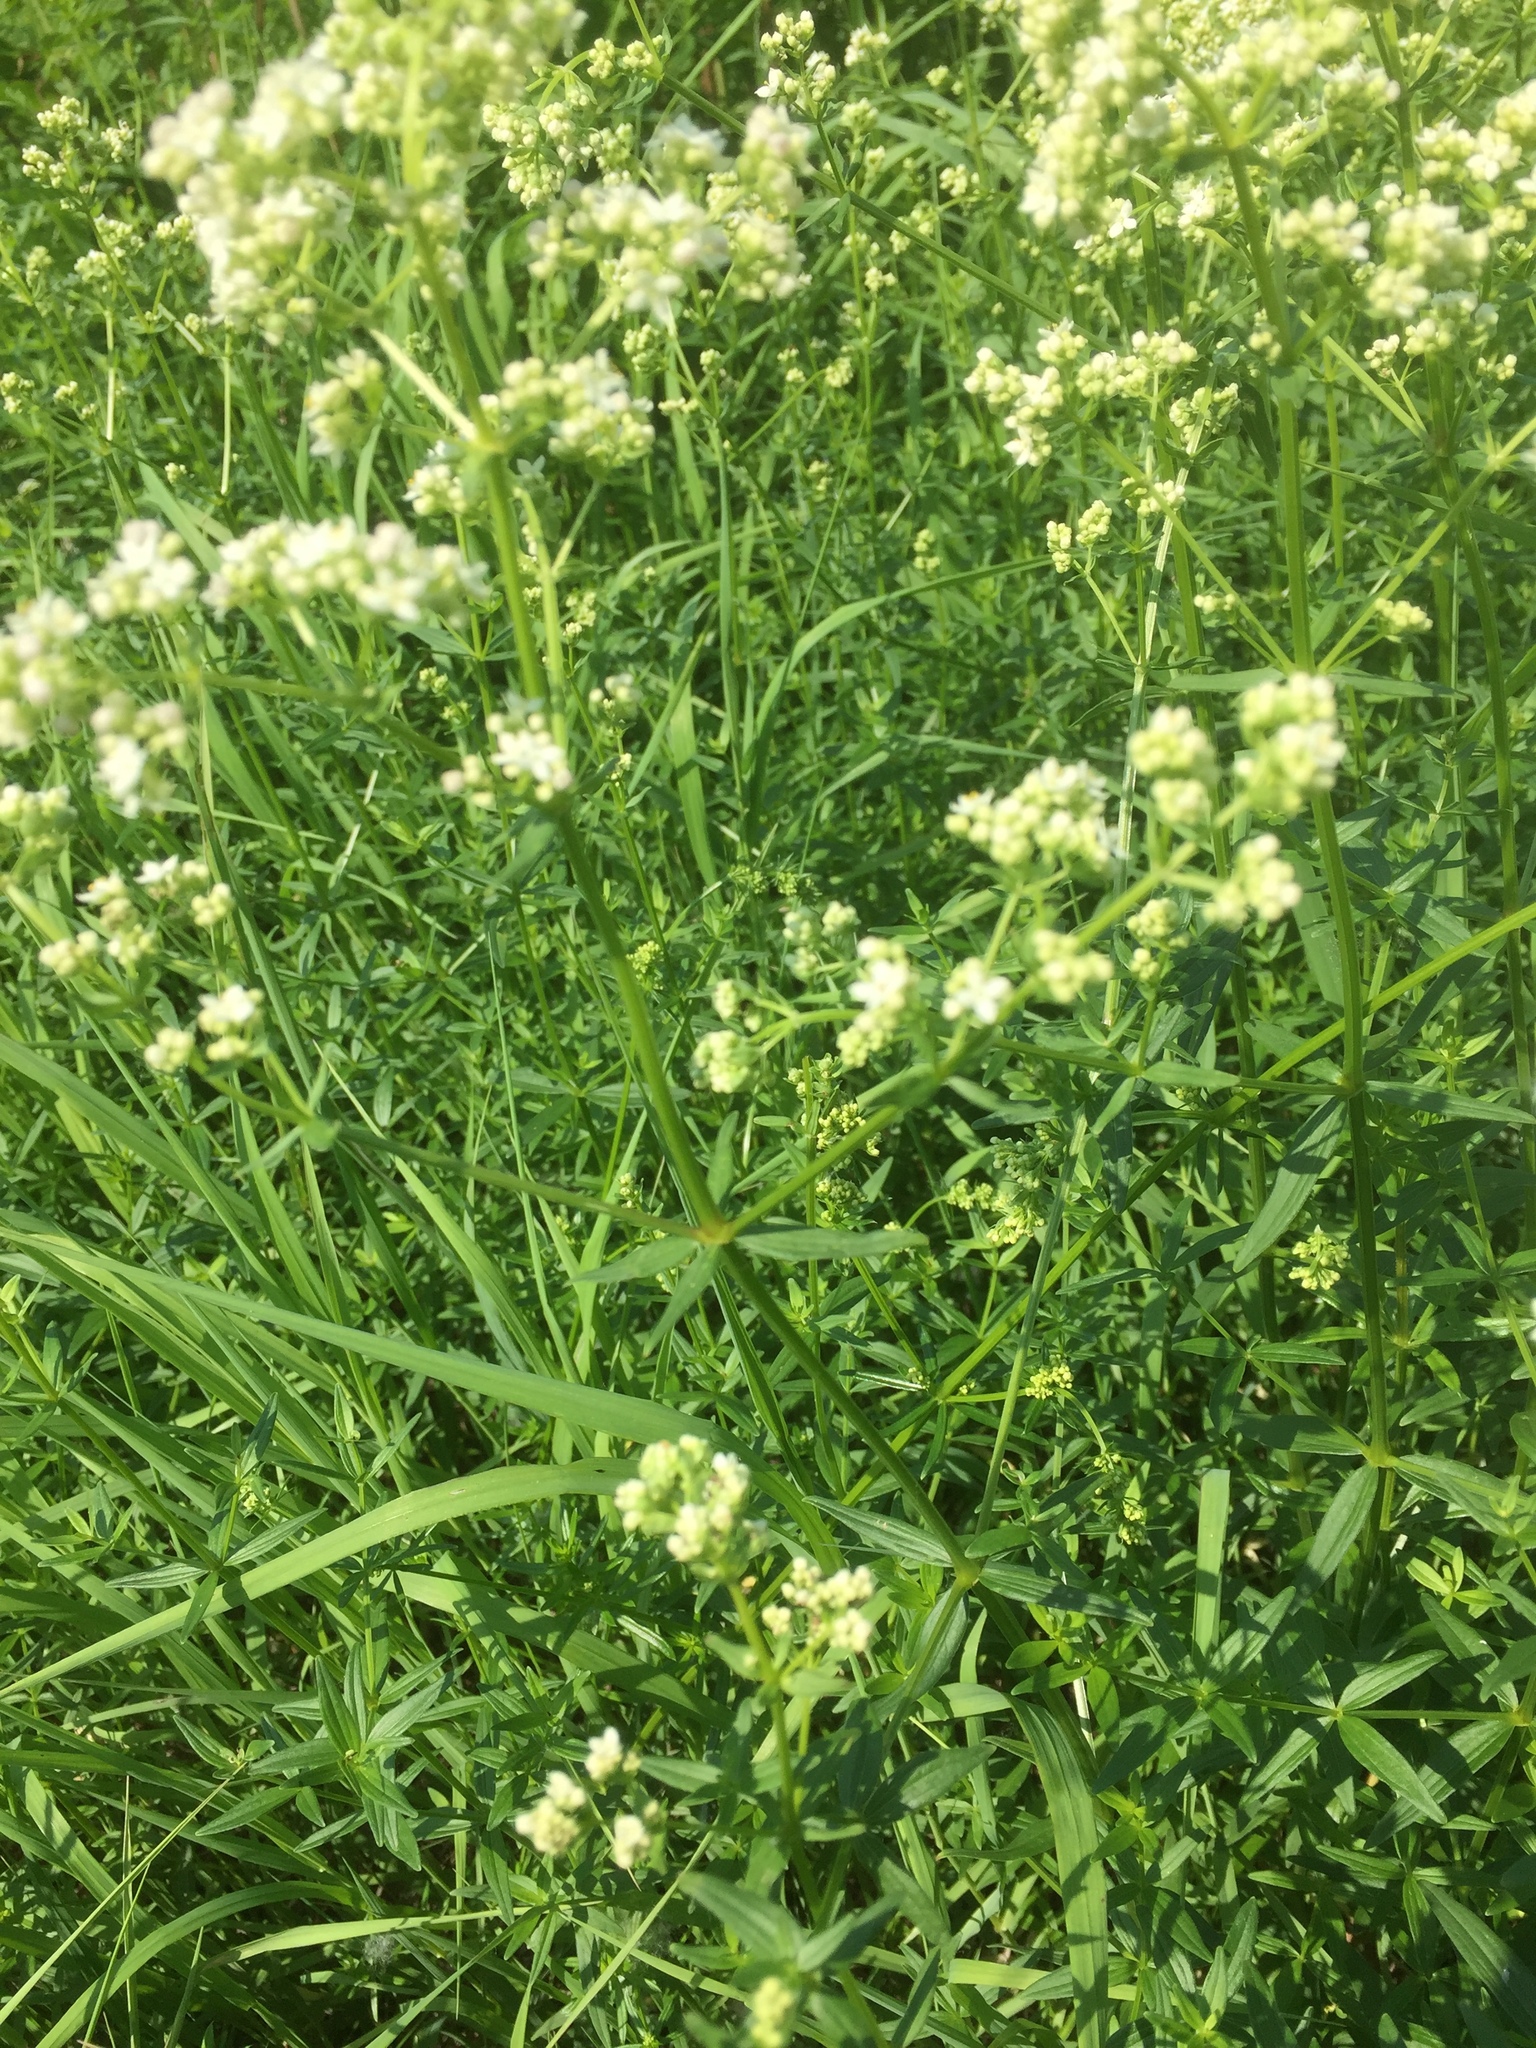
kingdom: Plantae
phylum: Tracheophyta
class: Magnoliopsida
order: Gentianales
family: Rubiaceae
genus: Galium
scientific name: Galium boreale
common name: Northern bedstraw
